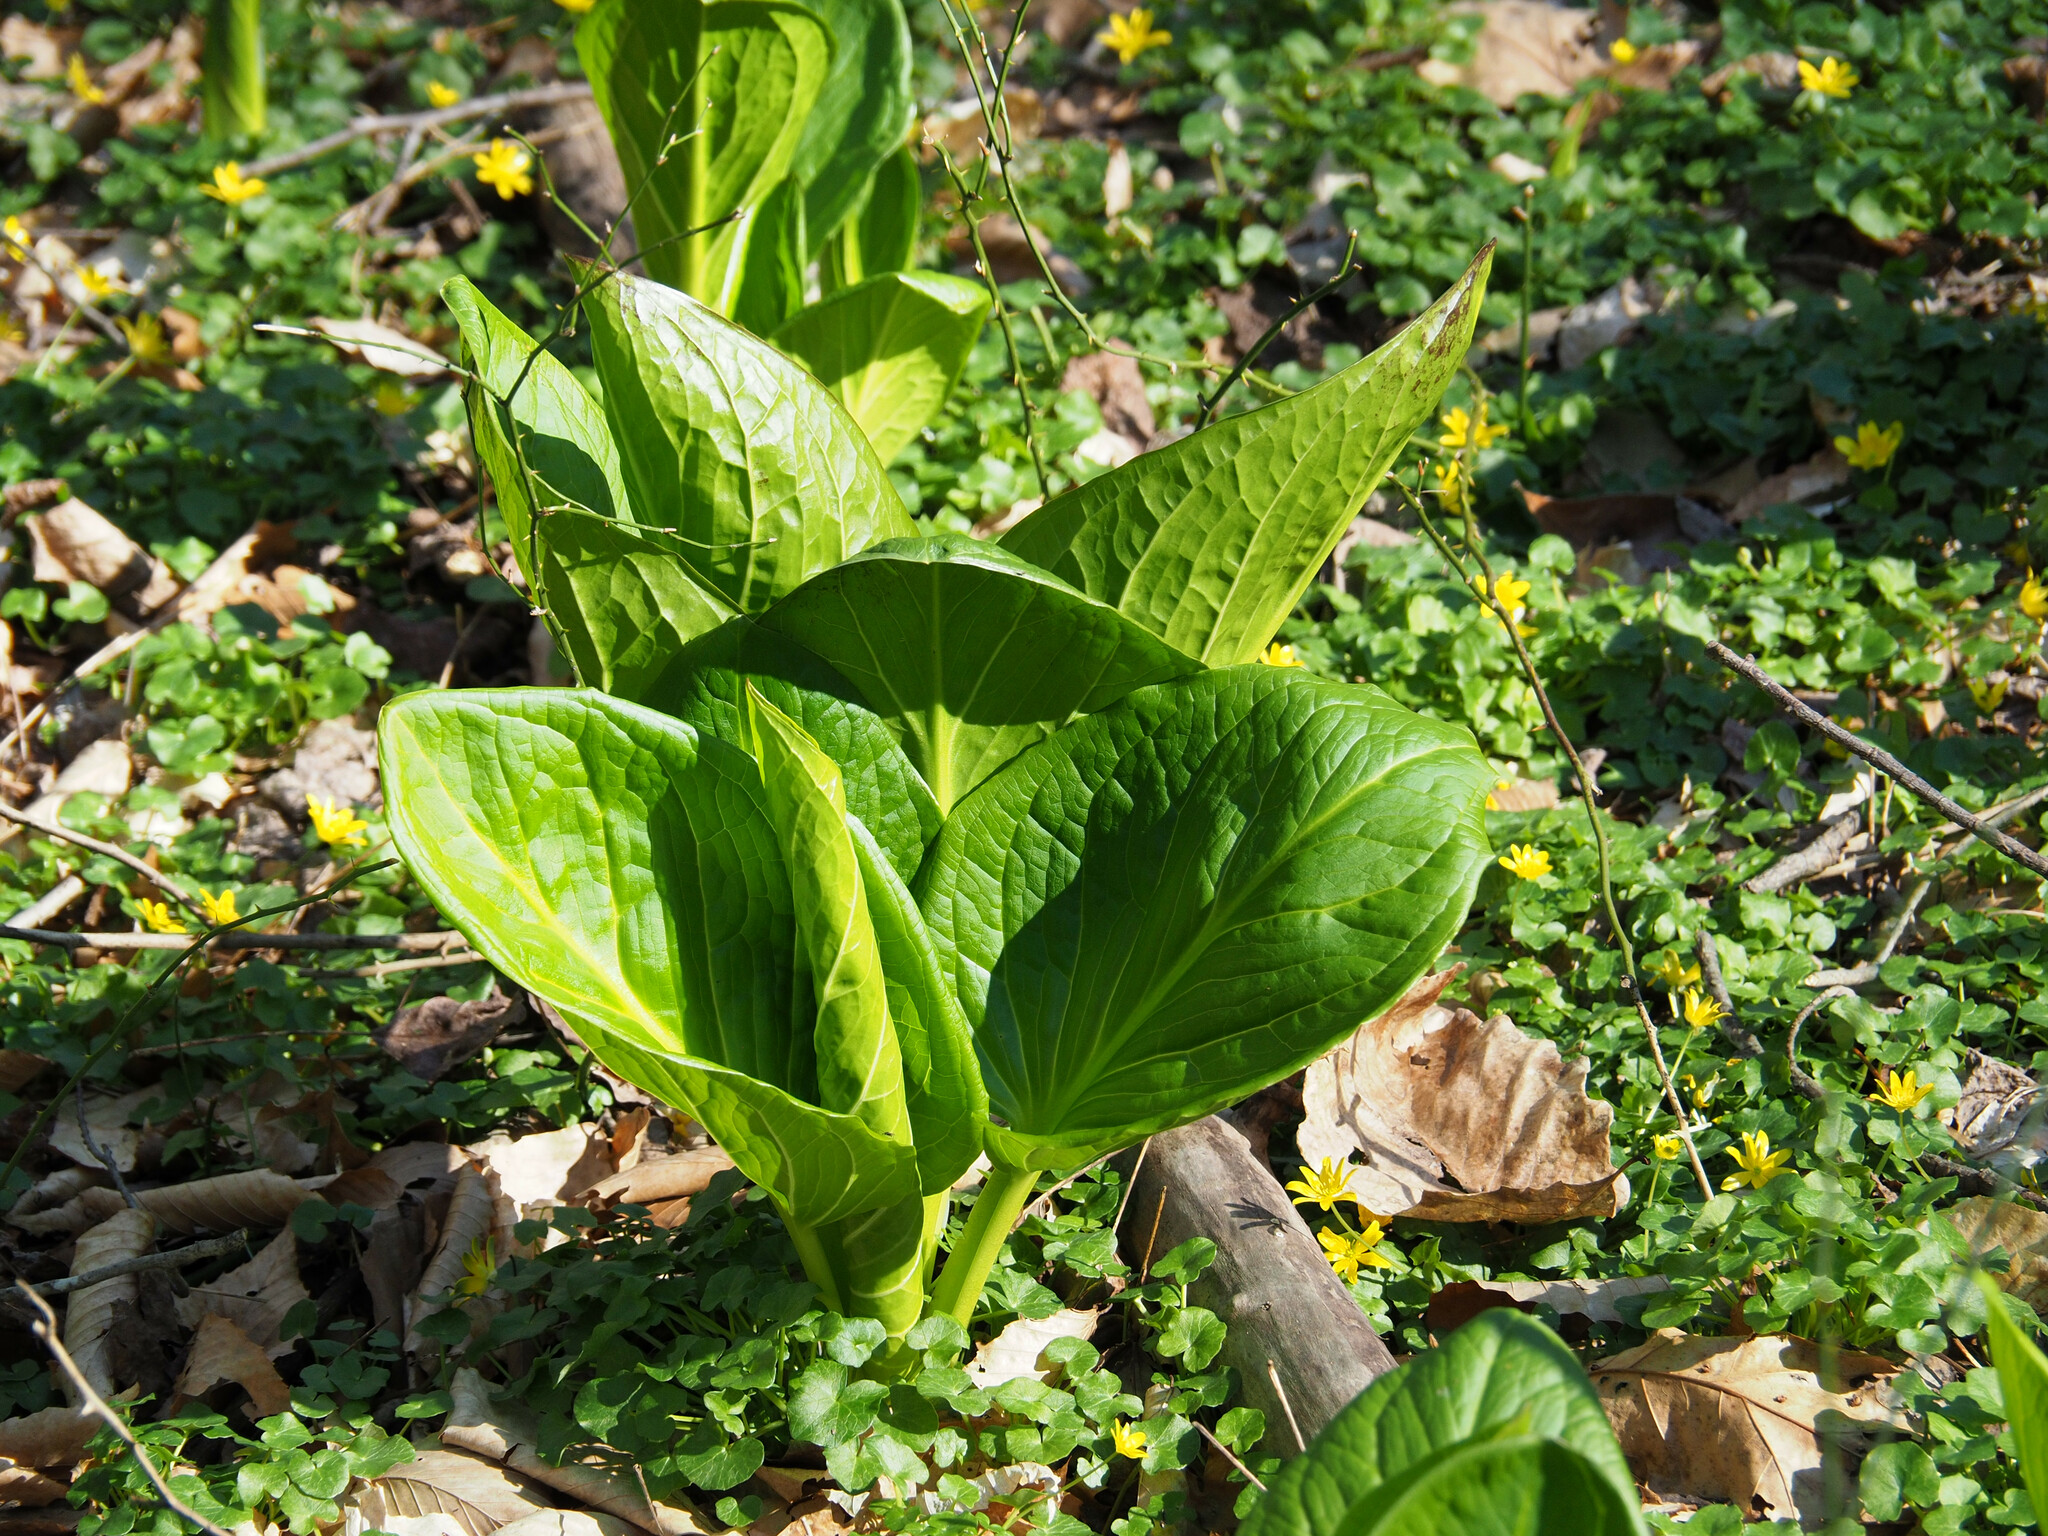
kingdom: Plantae
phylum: Tracheophyta
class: Liliopsida
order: Alismatales
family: Araceae
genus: Symplocarpus
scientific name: Symplocarpus foetidus
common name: Eastern skunk cabbage
